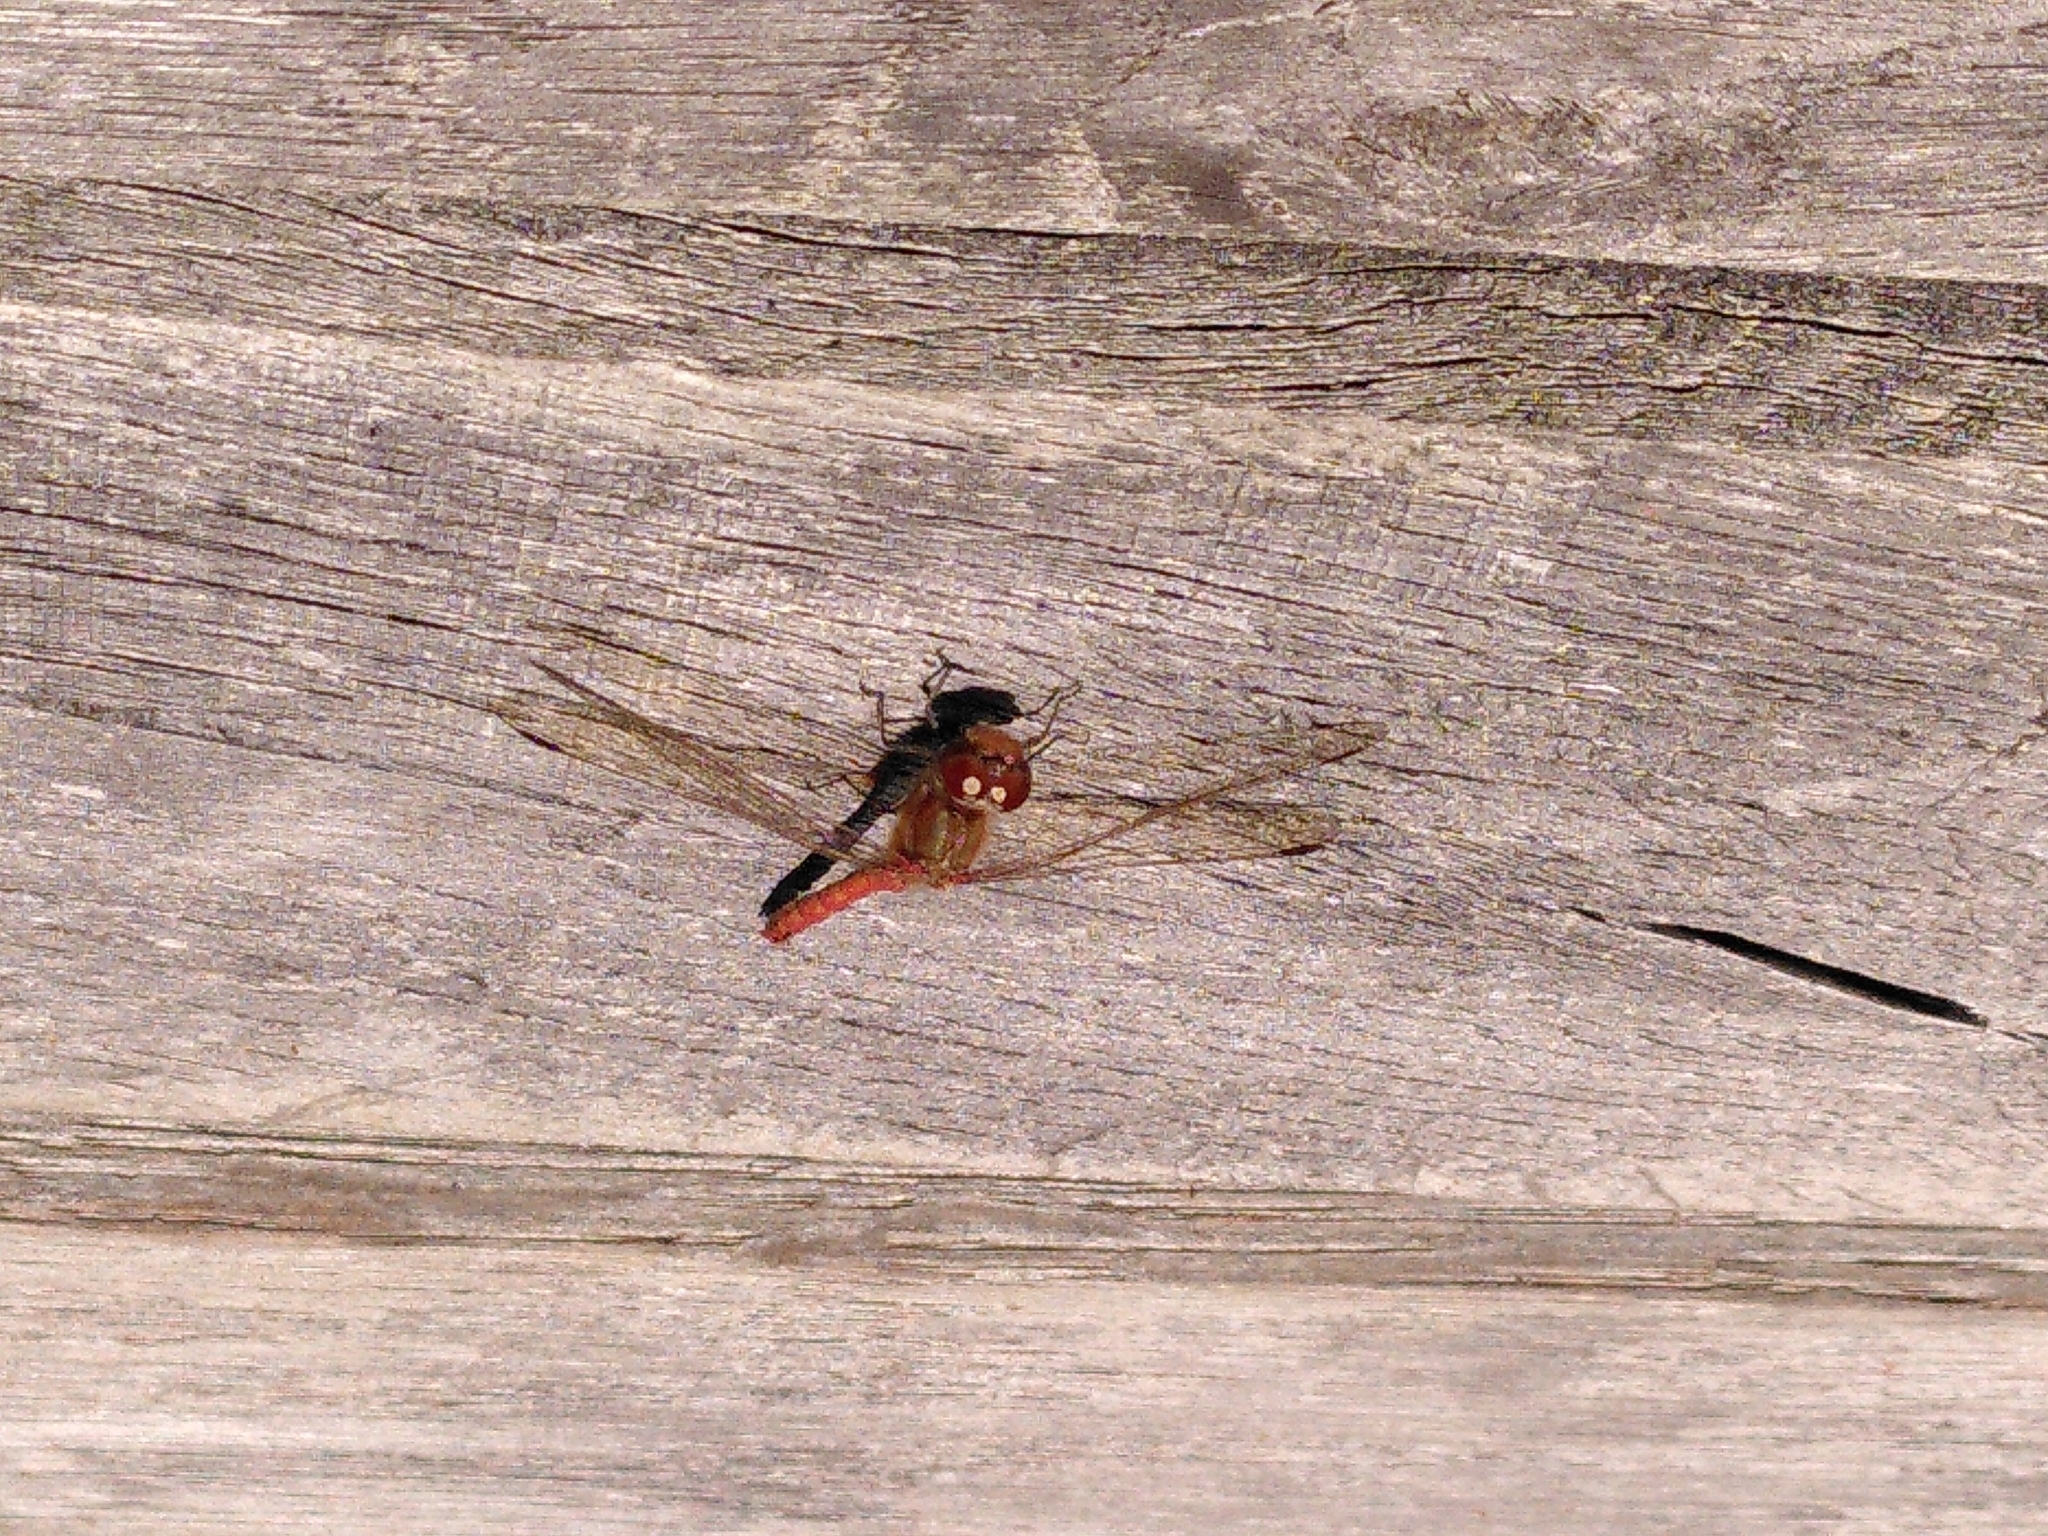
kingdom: Animalia
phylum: Arthropoda
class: Insecta
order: Odonata
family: Libellulidae
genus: Sympetrum
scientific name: Sympetrum striolatum
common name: Common darter
